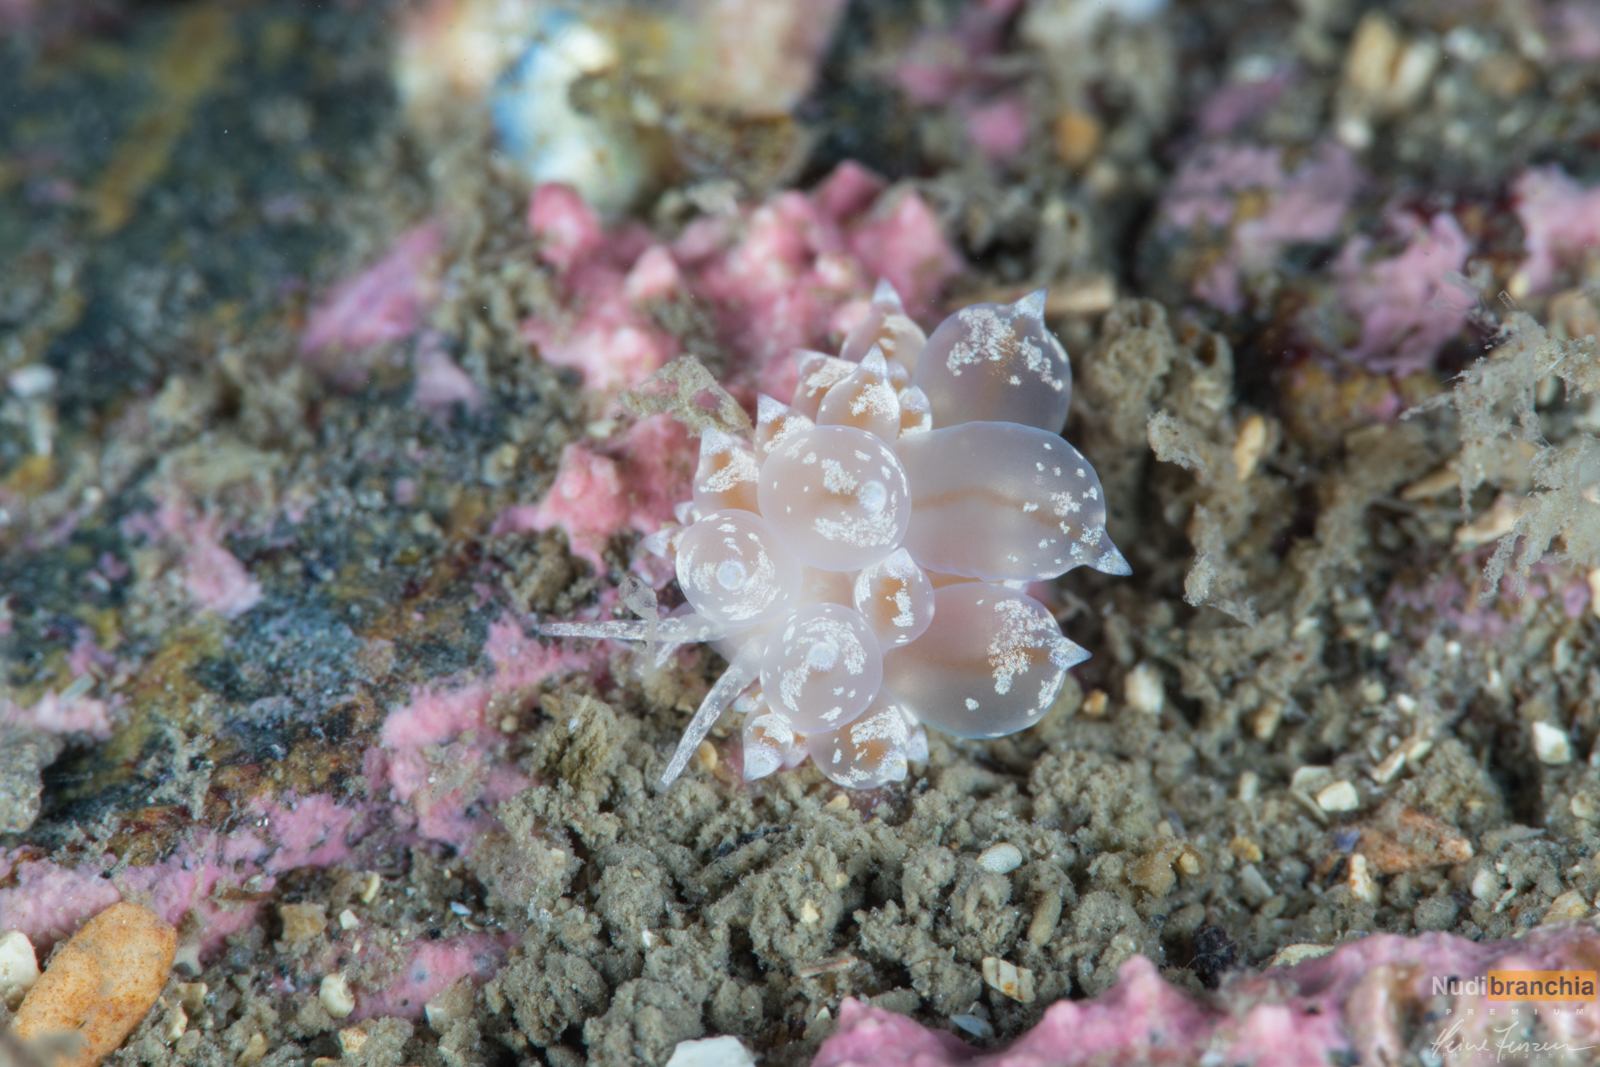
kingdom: Animalia
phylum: Mollusca
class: Gastropoda
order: Nudibranchia
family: Eubranchidae
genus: Amphorina
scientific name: Amphorina pallida
